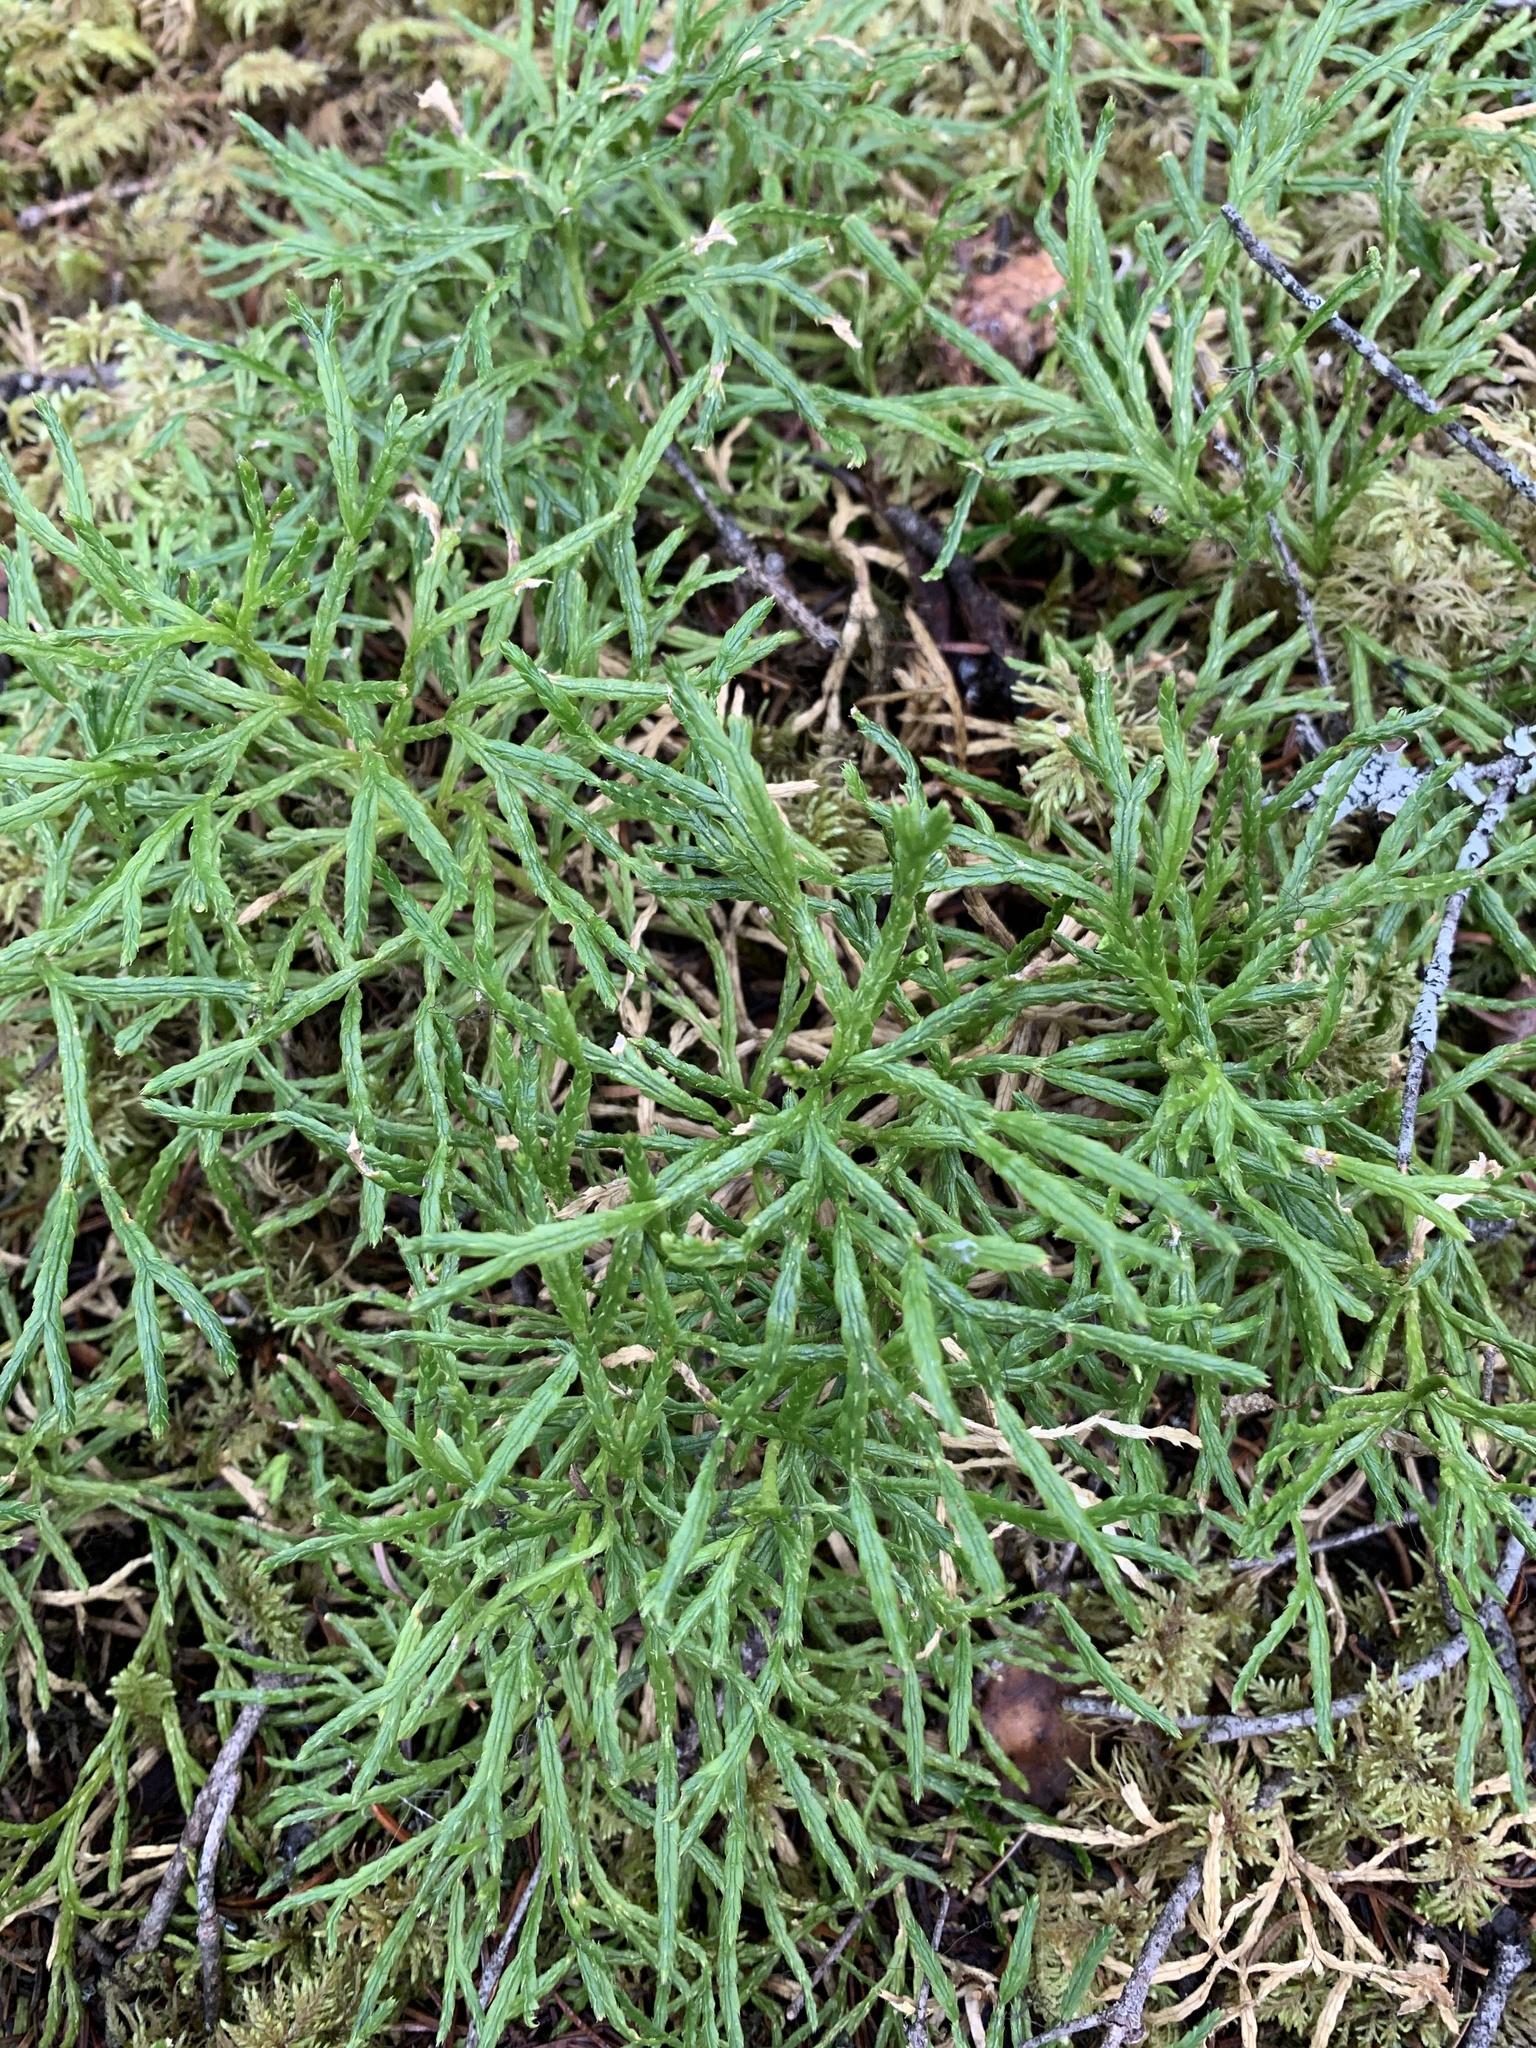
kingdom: Plantae
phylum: Tracheophyta
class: Lycopodiopsida
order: Lycopodiales
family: Lycopodiaceae
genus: Diphasiastrum
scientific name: Diphasiastrum complanatum
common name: Northern running-pine
